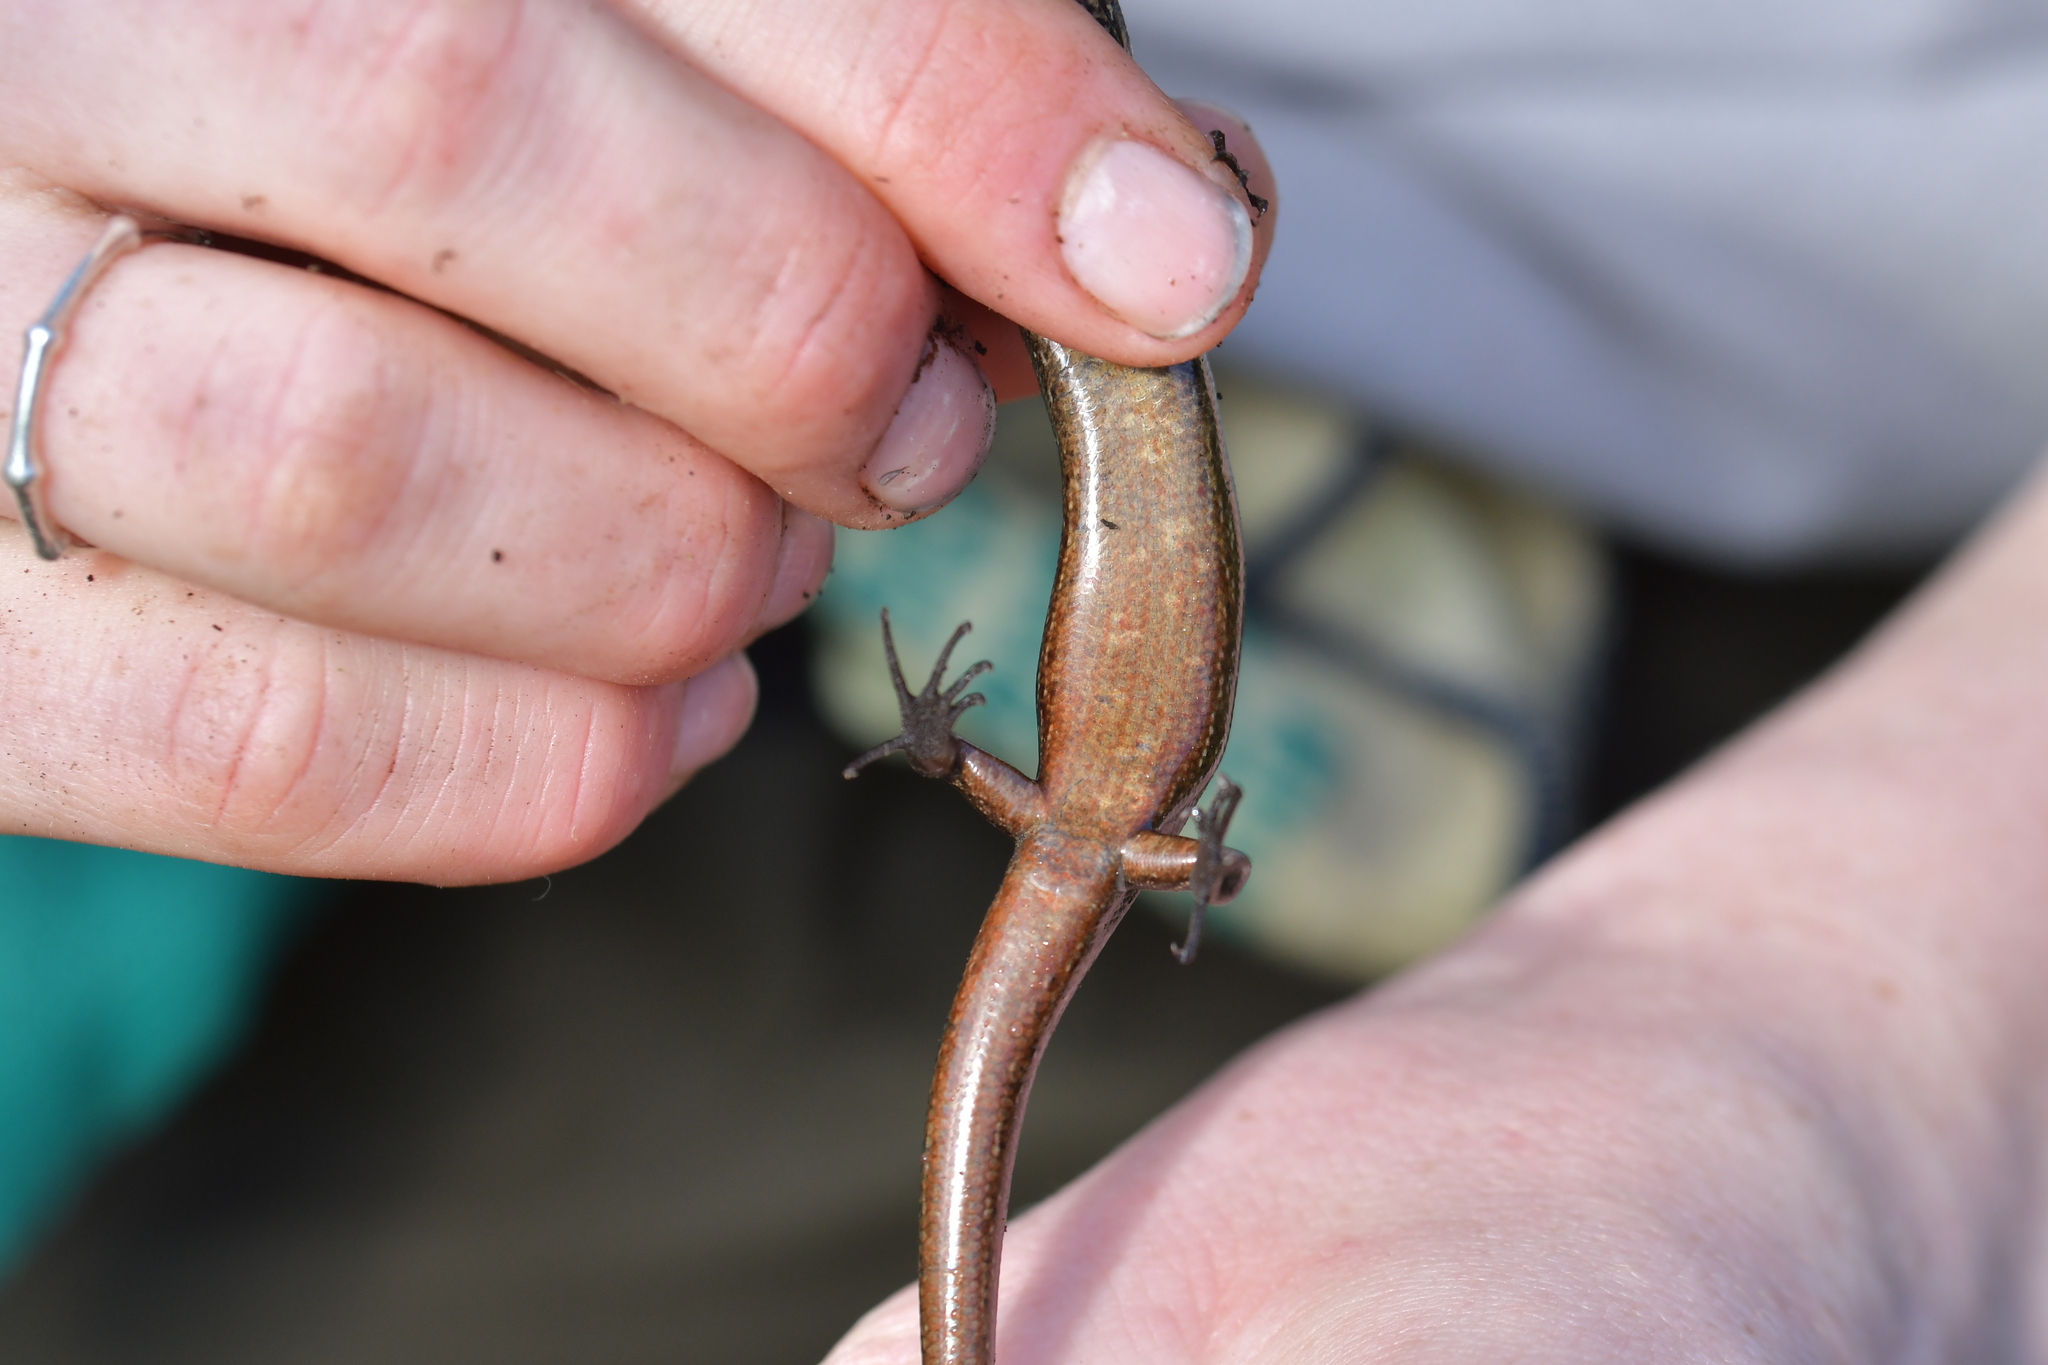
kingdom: Animalia
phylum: Chordata
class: Squamata
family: Scincidae
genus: Oligosoma
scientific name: Oligosoma zelandicum
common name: Brown skink
